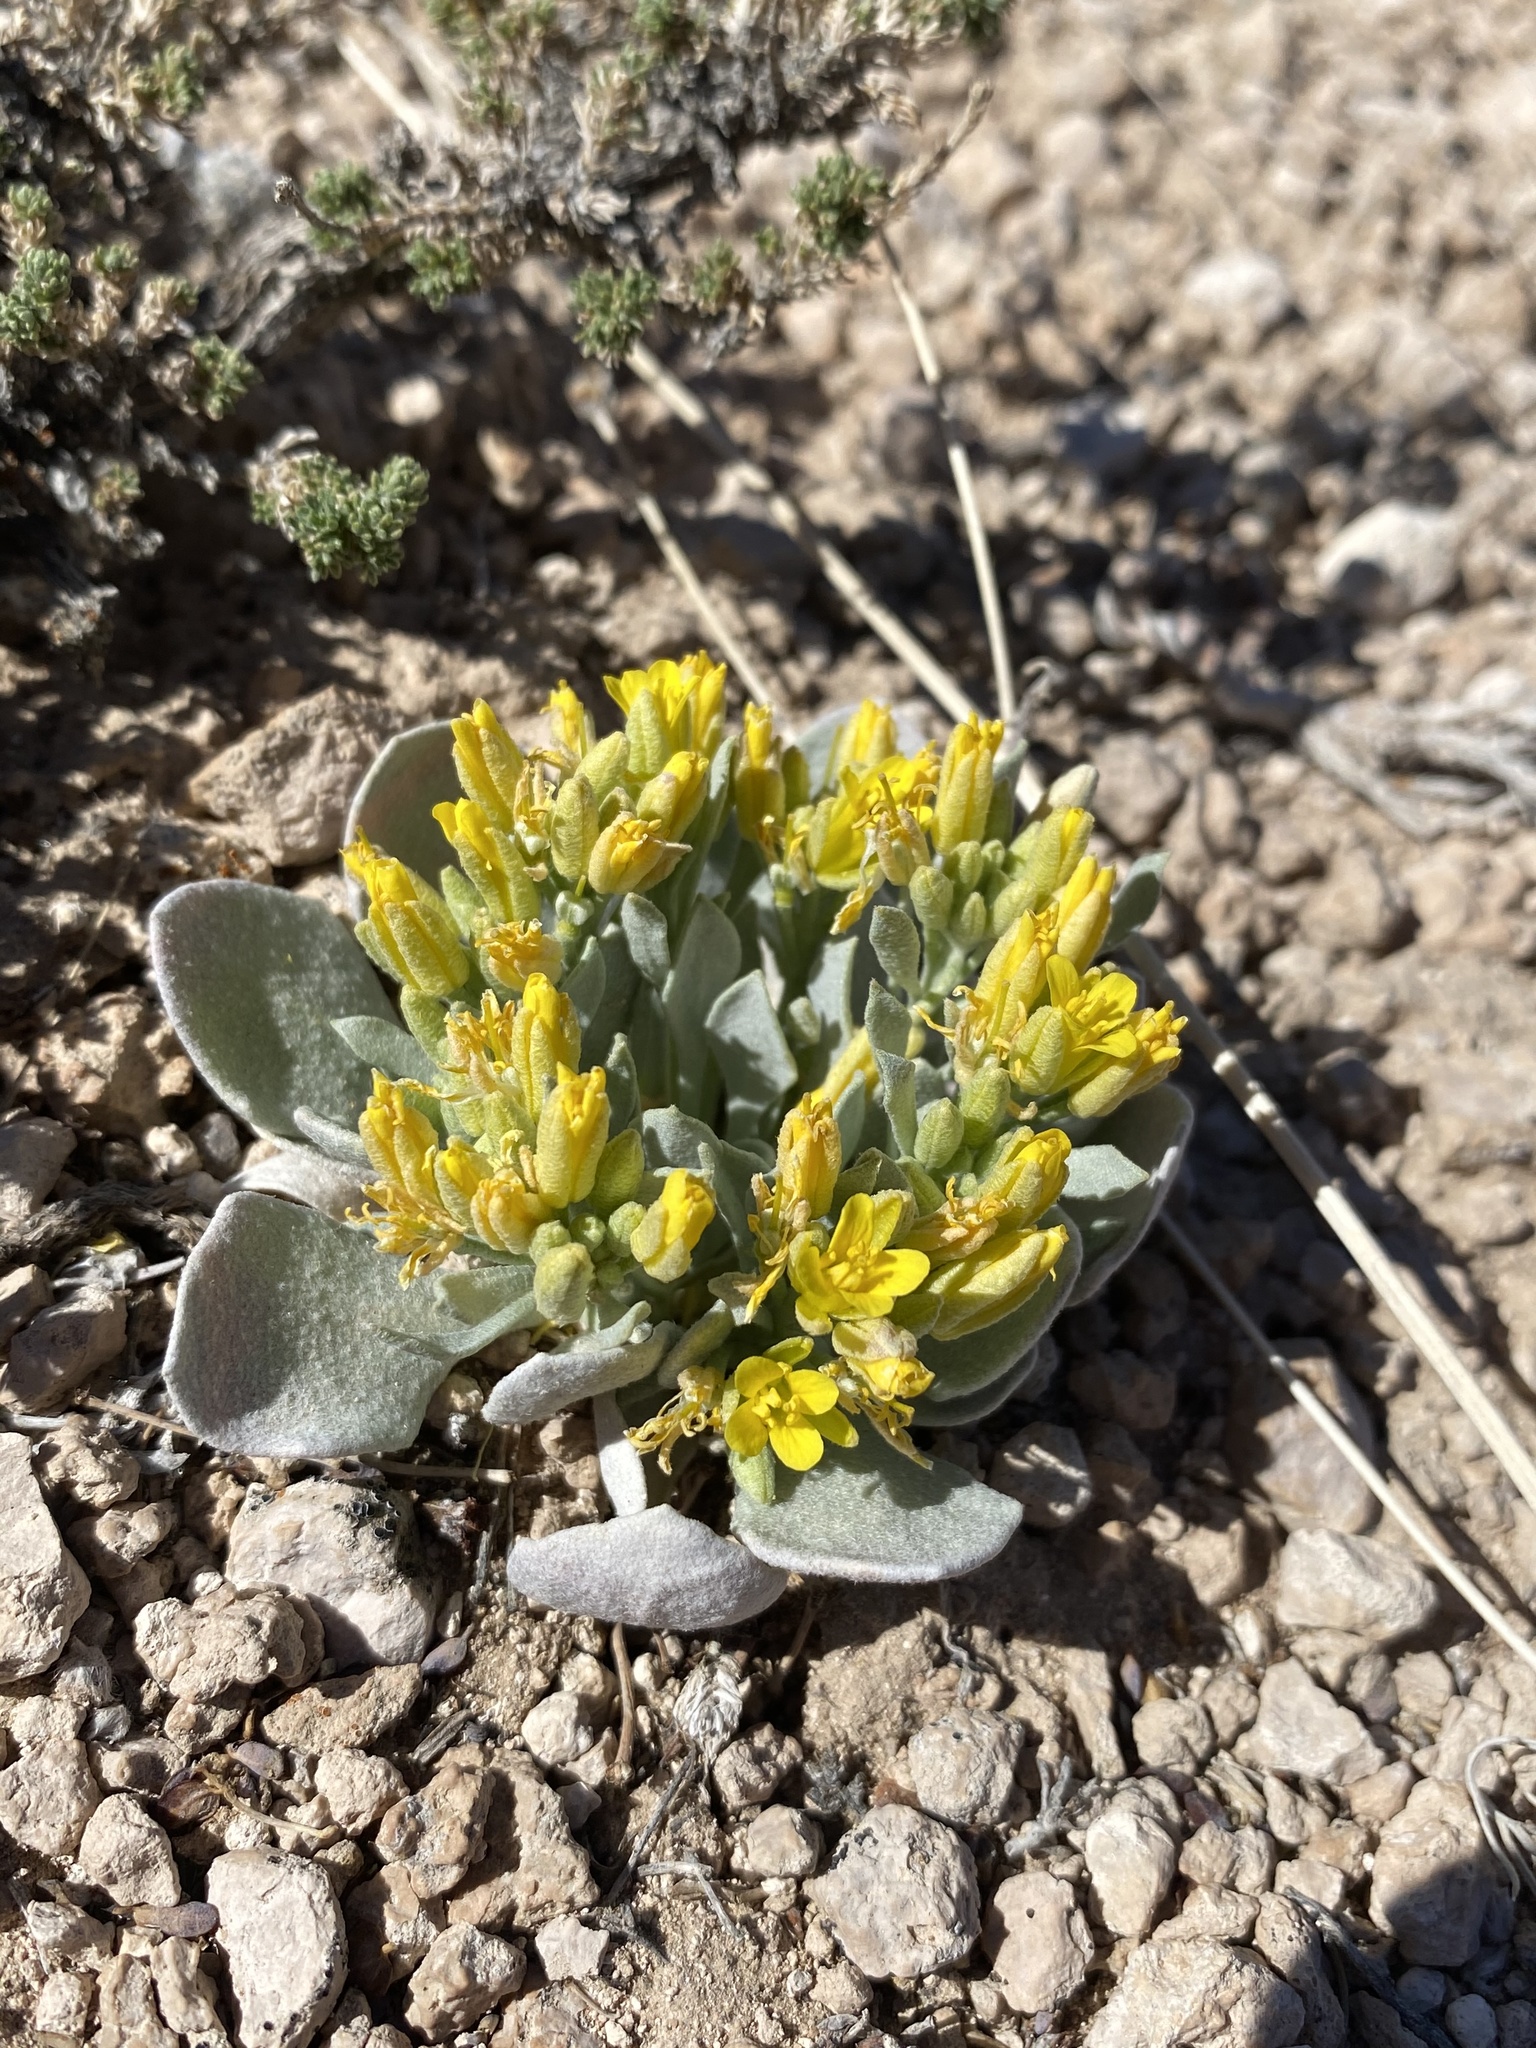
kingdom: Plantae
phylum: Tracheophyta
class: Magnoliopsida
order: Brassicales
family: Brassicaceae
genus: Physaria
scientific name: Physaria chambersii
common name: Chamber's twinpod
